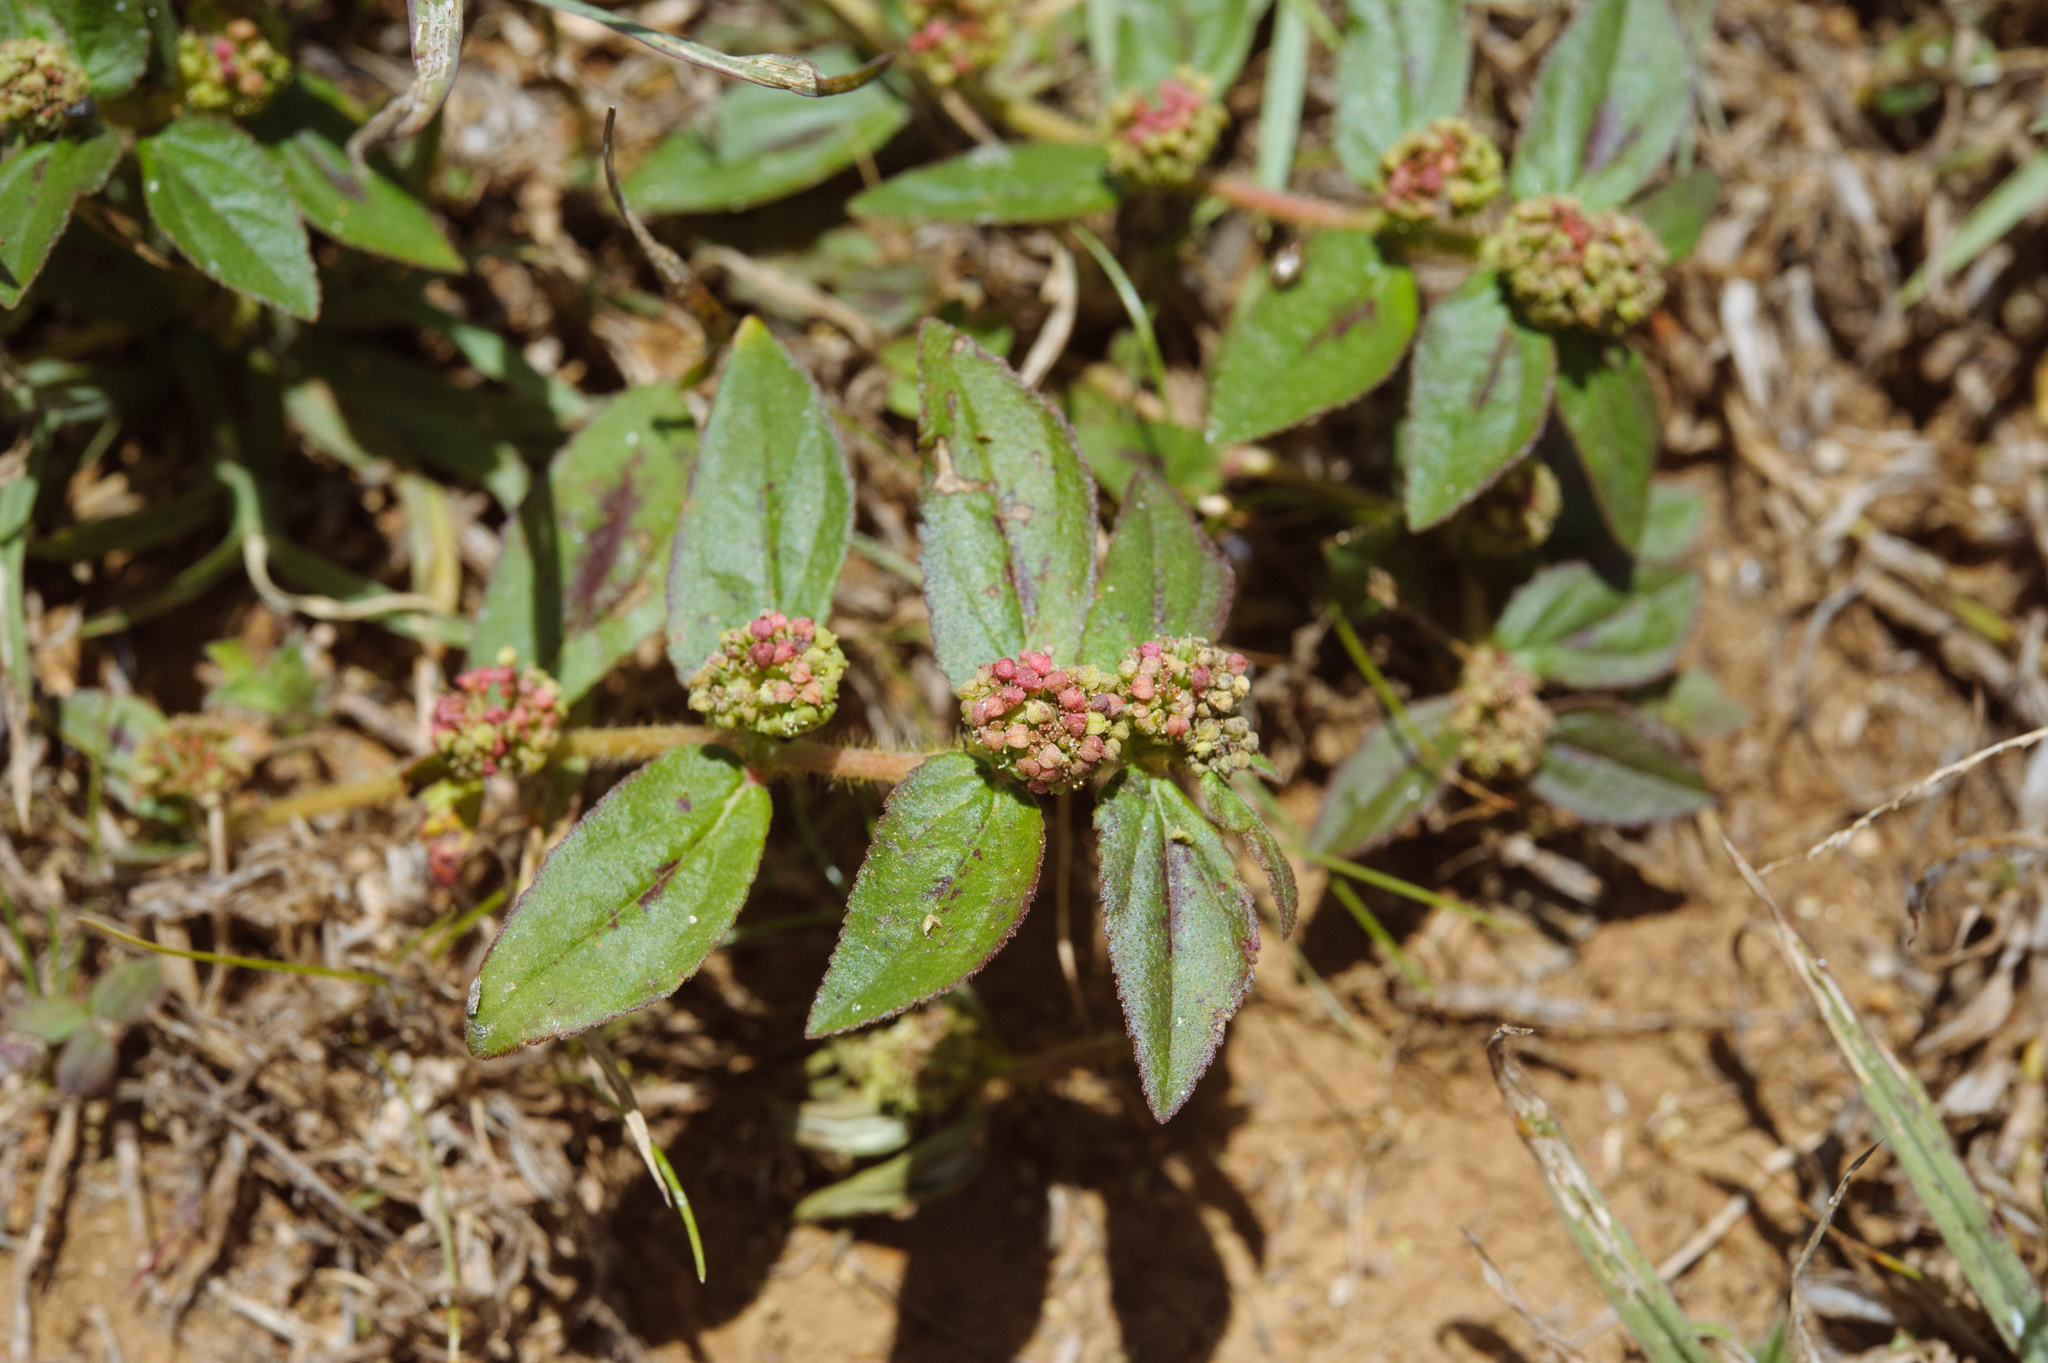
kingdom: Plantae
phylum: Tracheophyta
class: Magnoliopsida
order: Malpighiales
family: Euphorbiaceae
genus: Euphorbia
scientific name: Euphorbia hirta
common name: Pillpod sandmat
